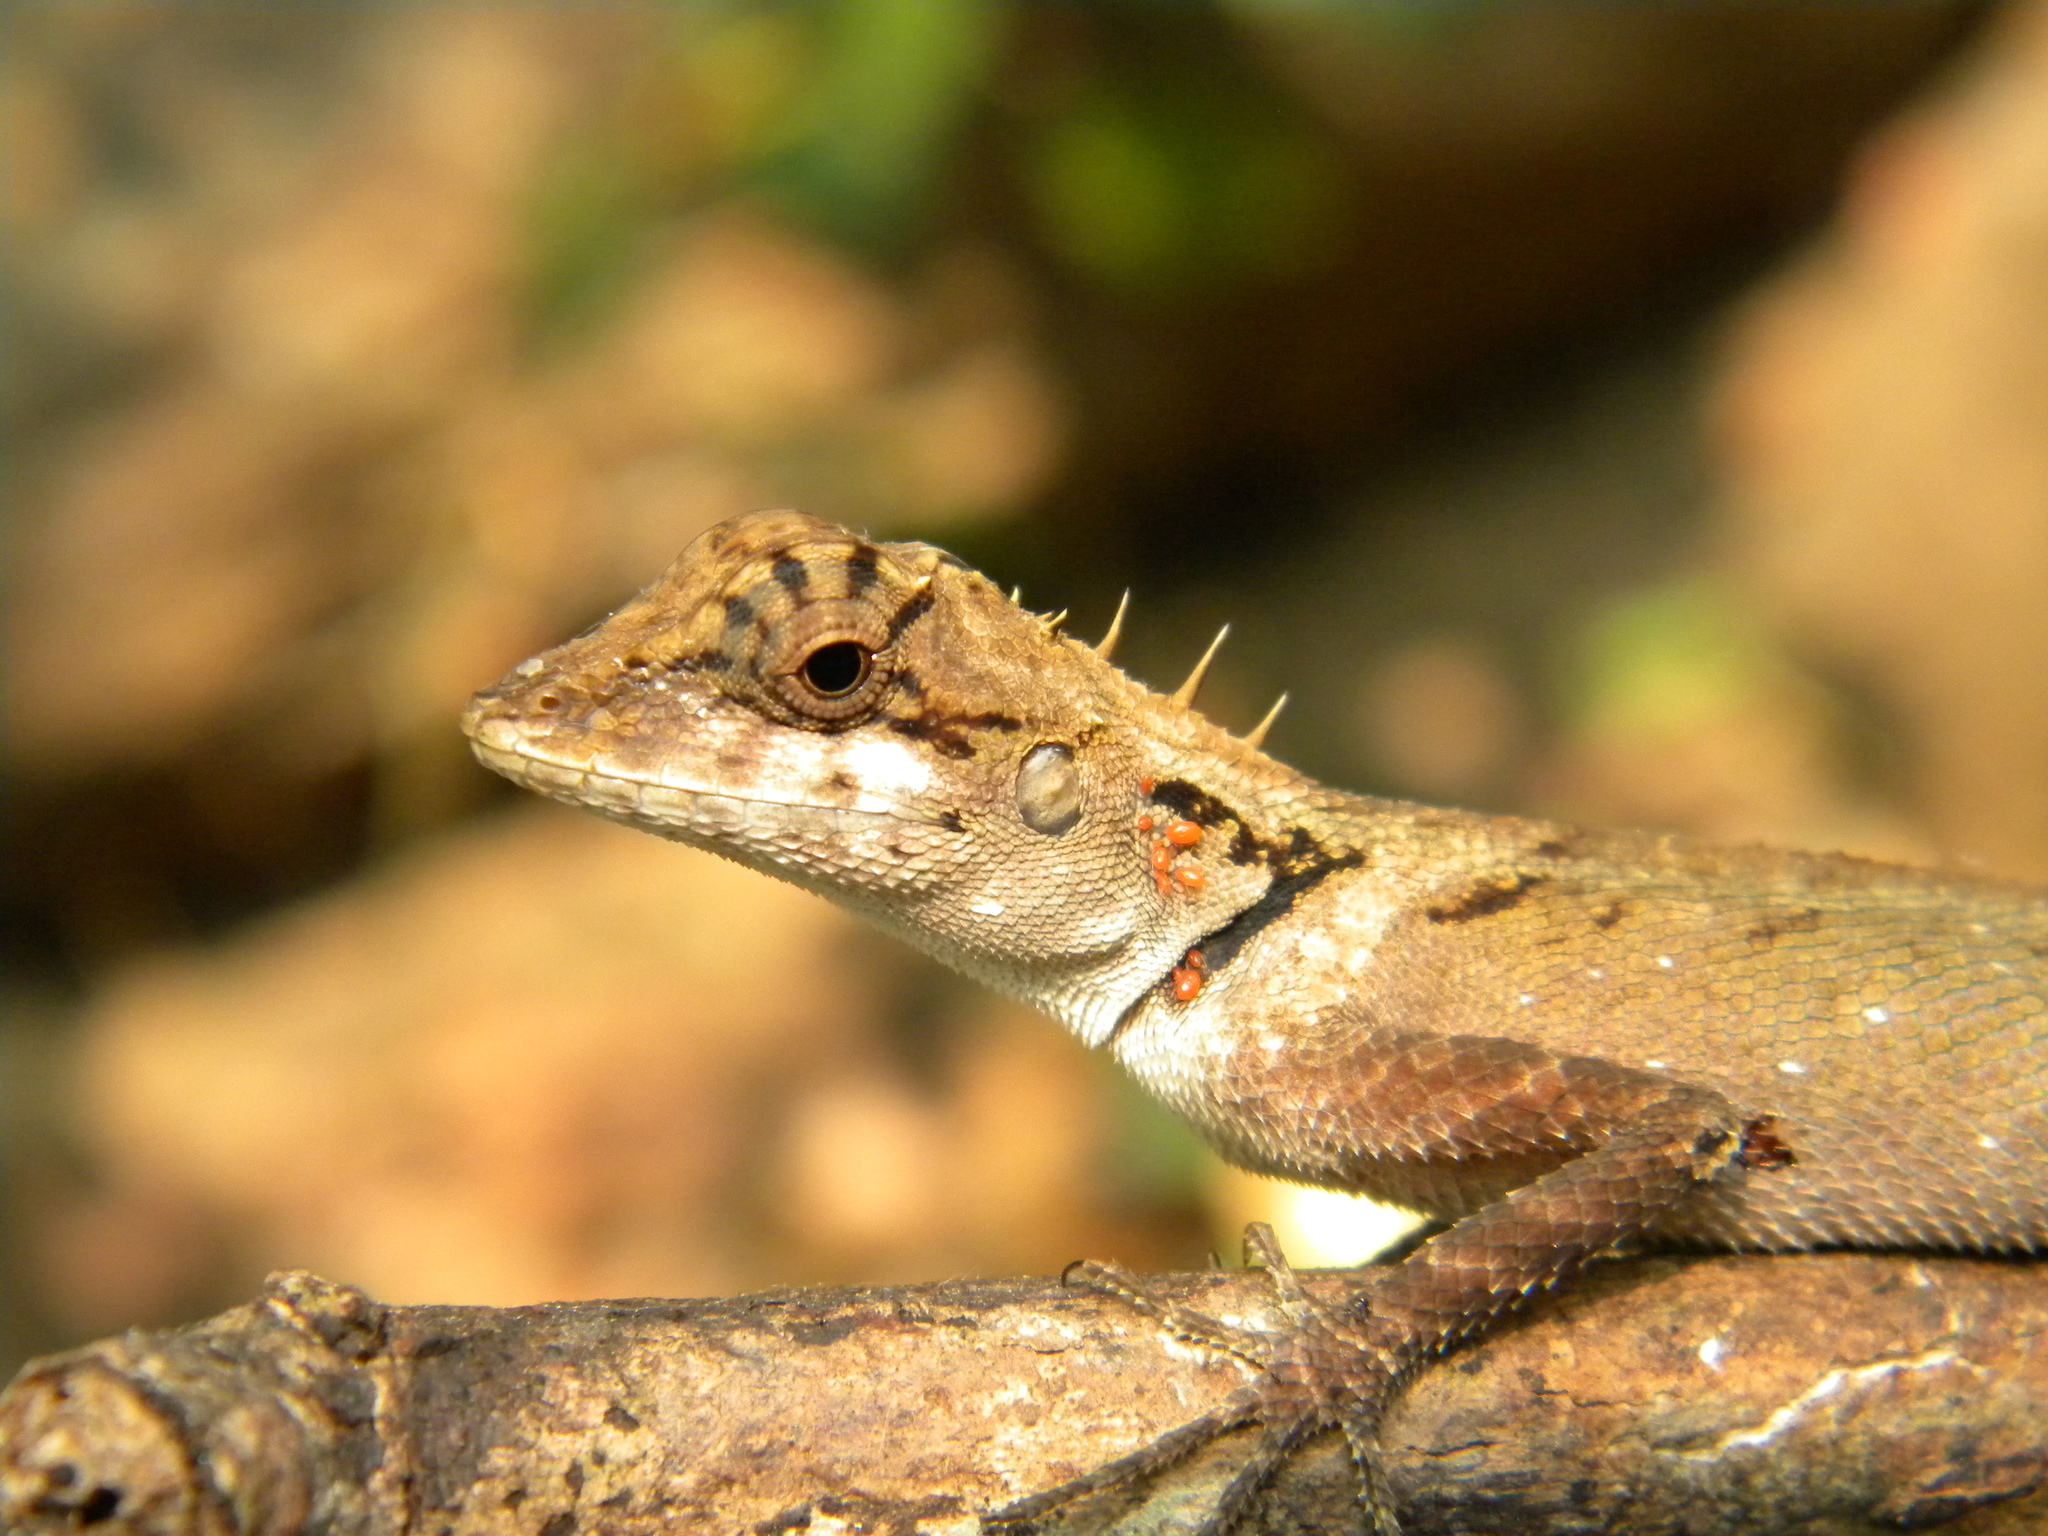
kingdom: Animalia
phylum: Chordata
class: Squamata
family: Agamidae
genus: Monilesaurus
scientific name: Monilesaurus ellioti
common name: Elliot's forest lizard
